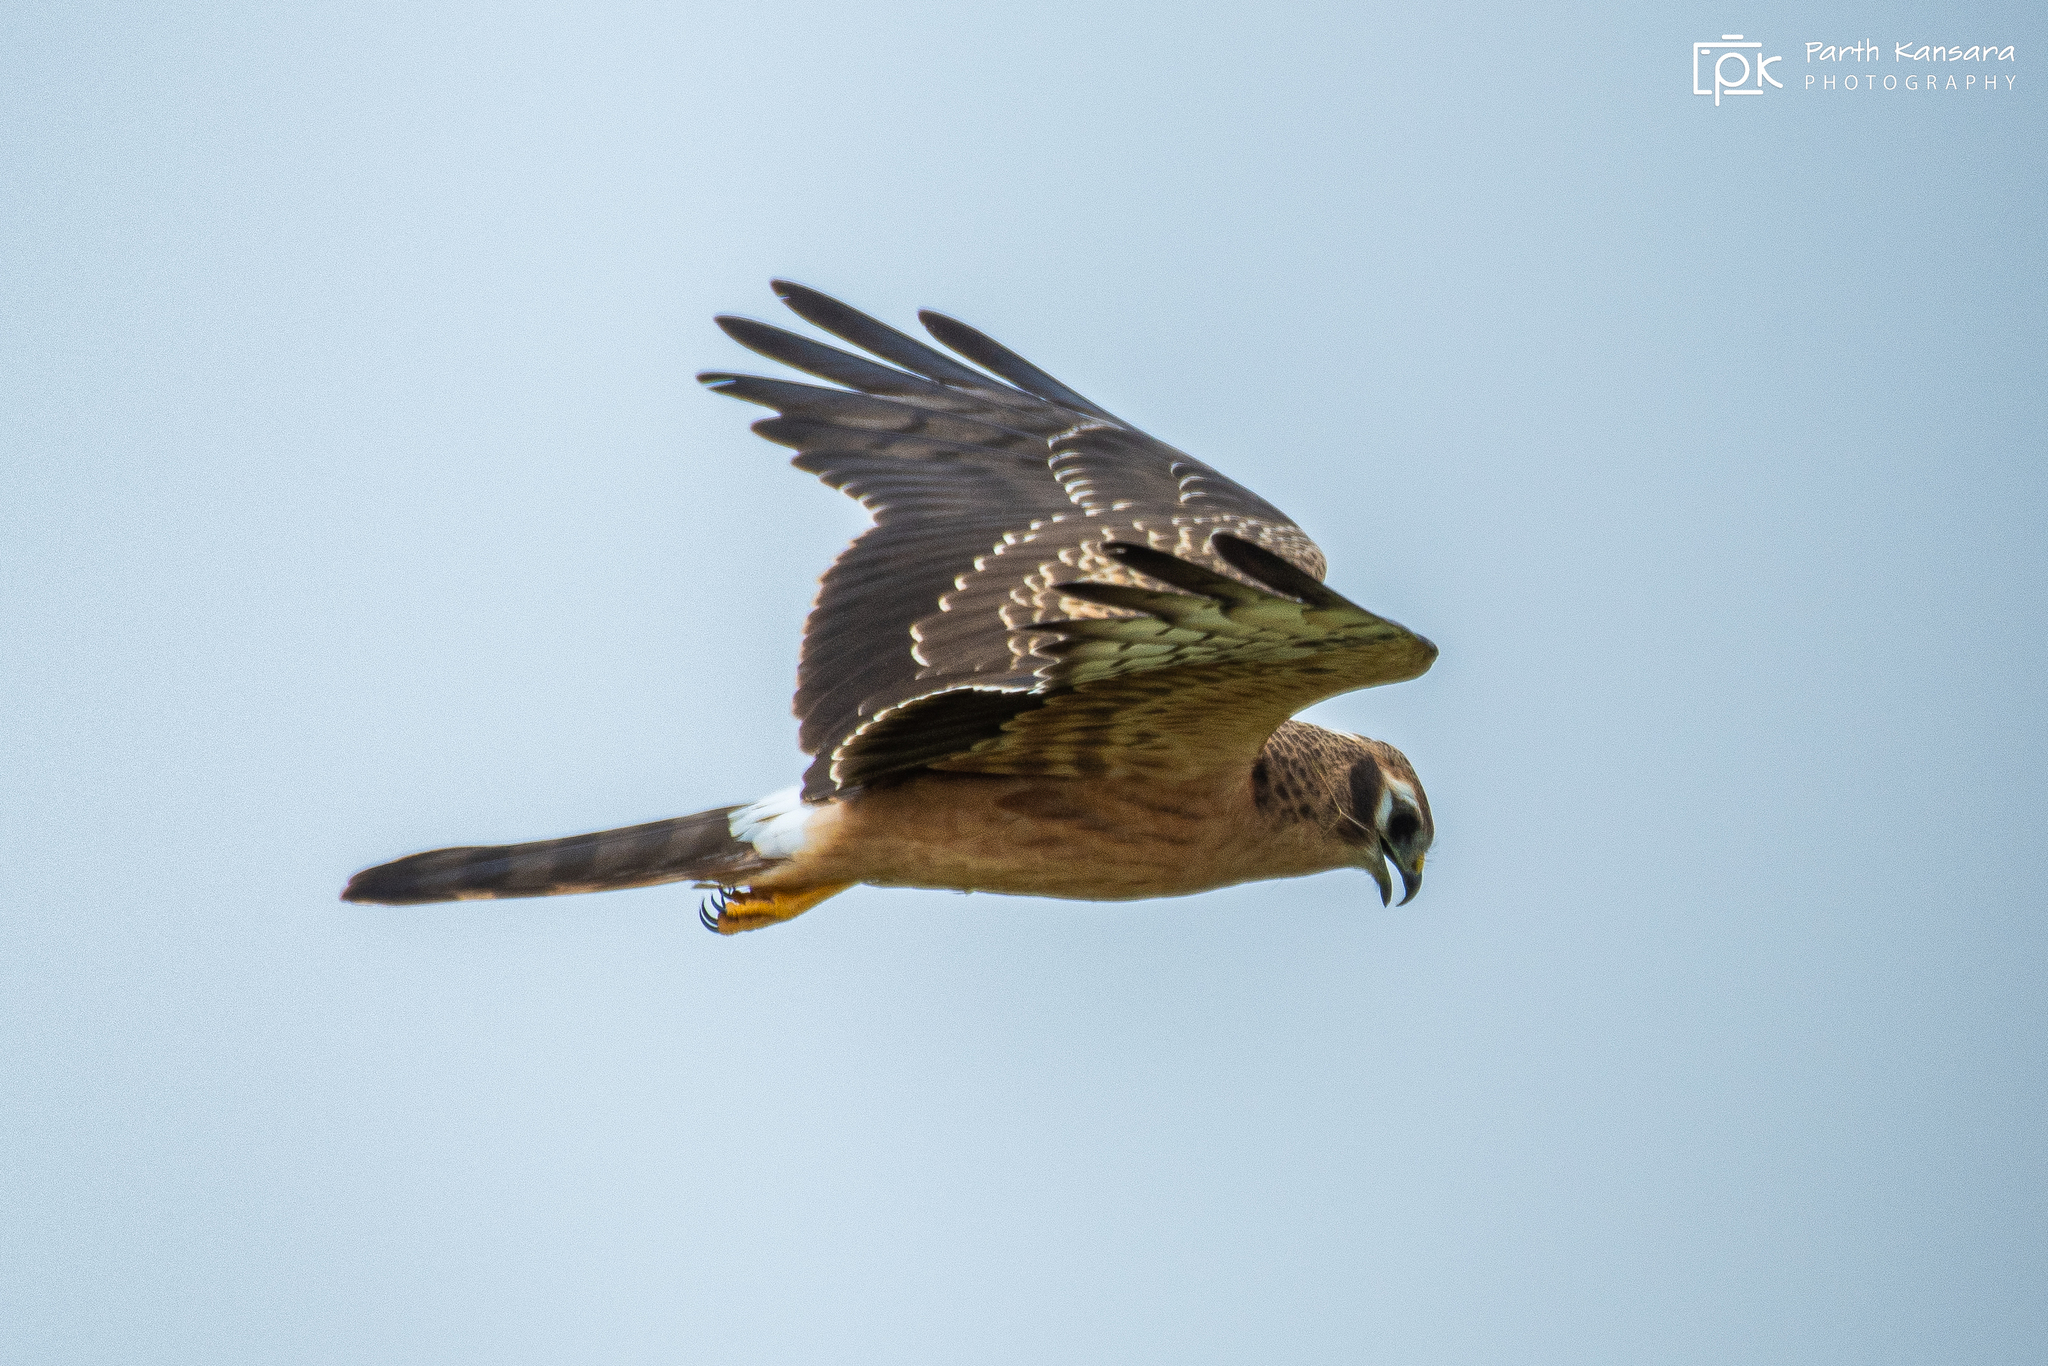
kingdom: Animalia
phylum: Chordata
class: Aves
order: Accipitriformes
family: Accipitridae
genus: Circus
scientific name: Circus pygargus
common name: Montagu's harrier
